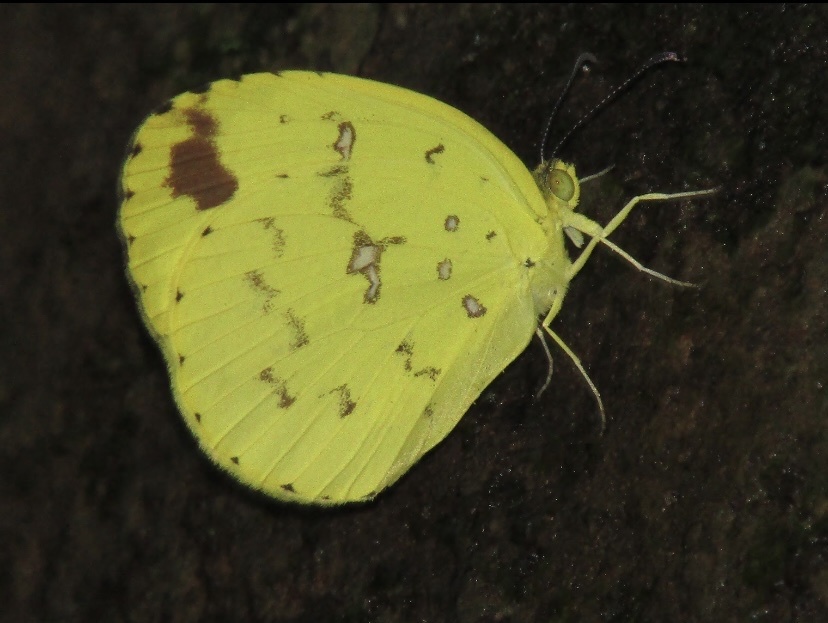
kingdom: Animalia
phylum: Arthropoda
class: Insecta
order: Lepidoptera
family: Pieridae
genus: Eurema
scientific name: Eurema floricola
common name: Malagasy grass yellow
